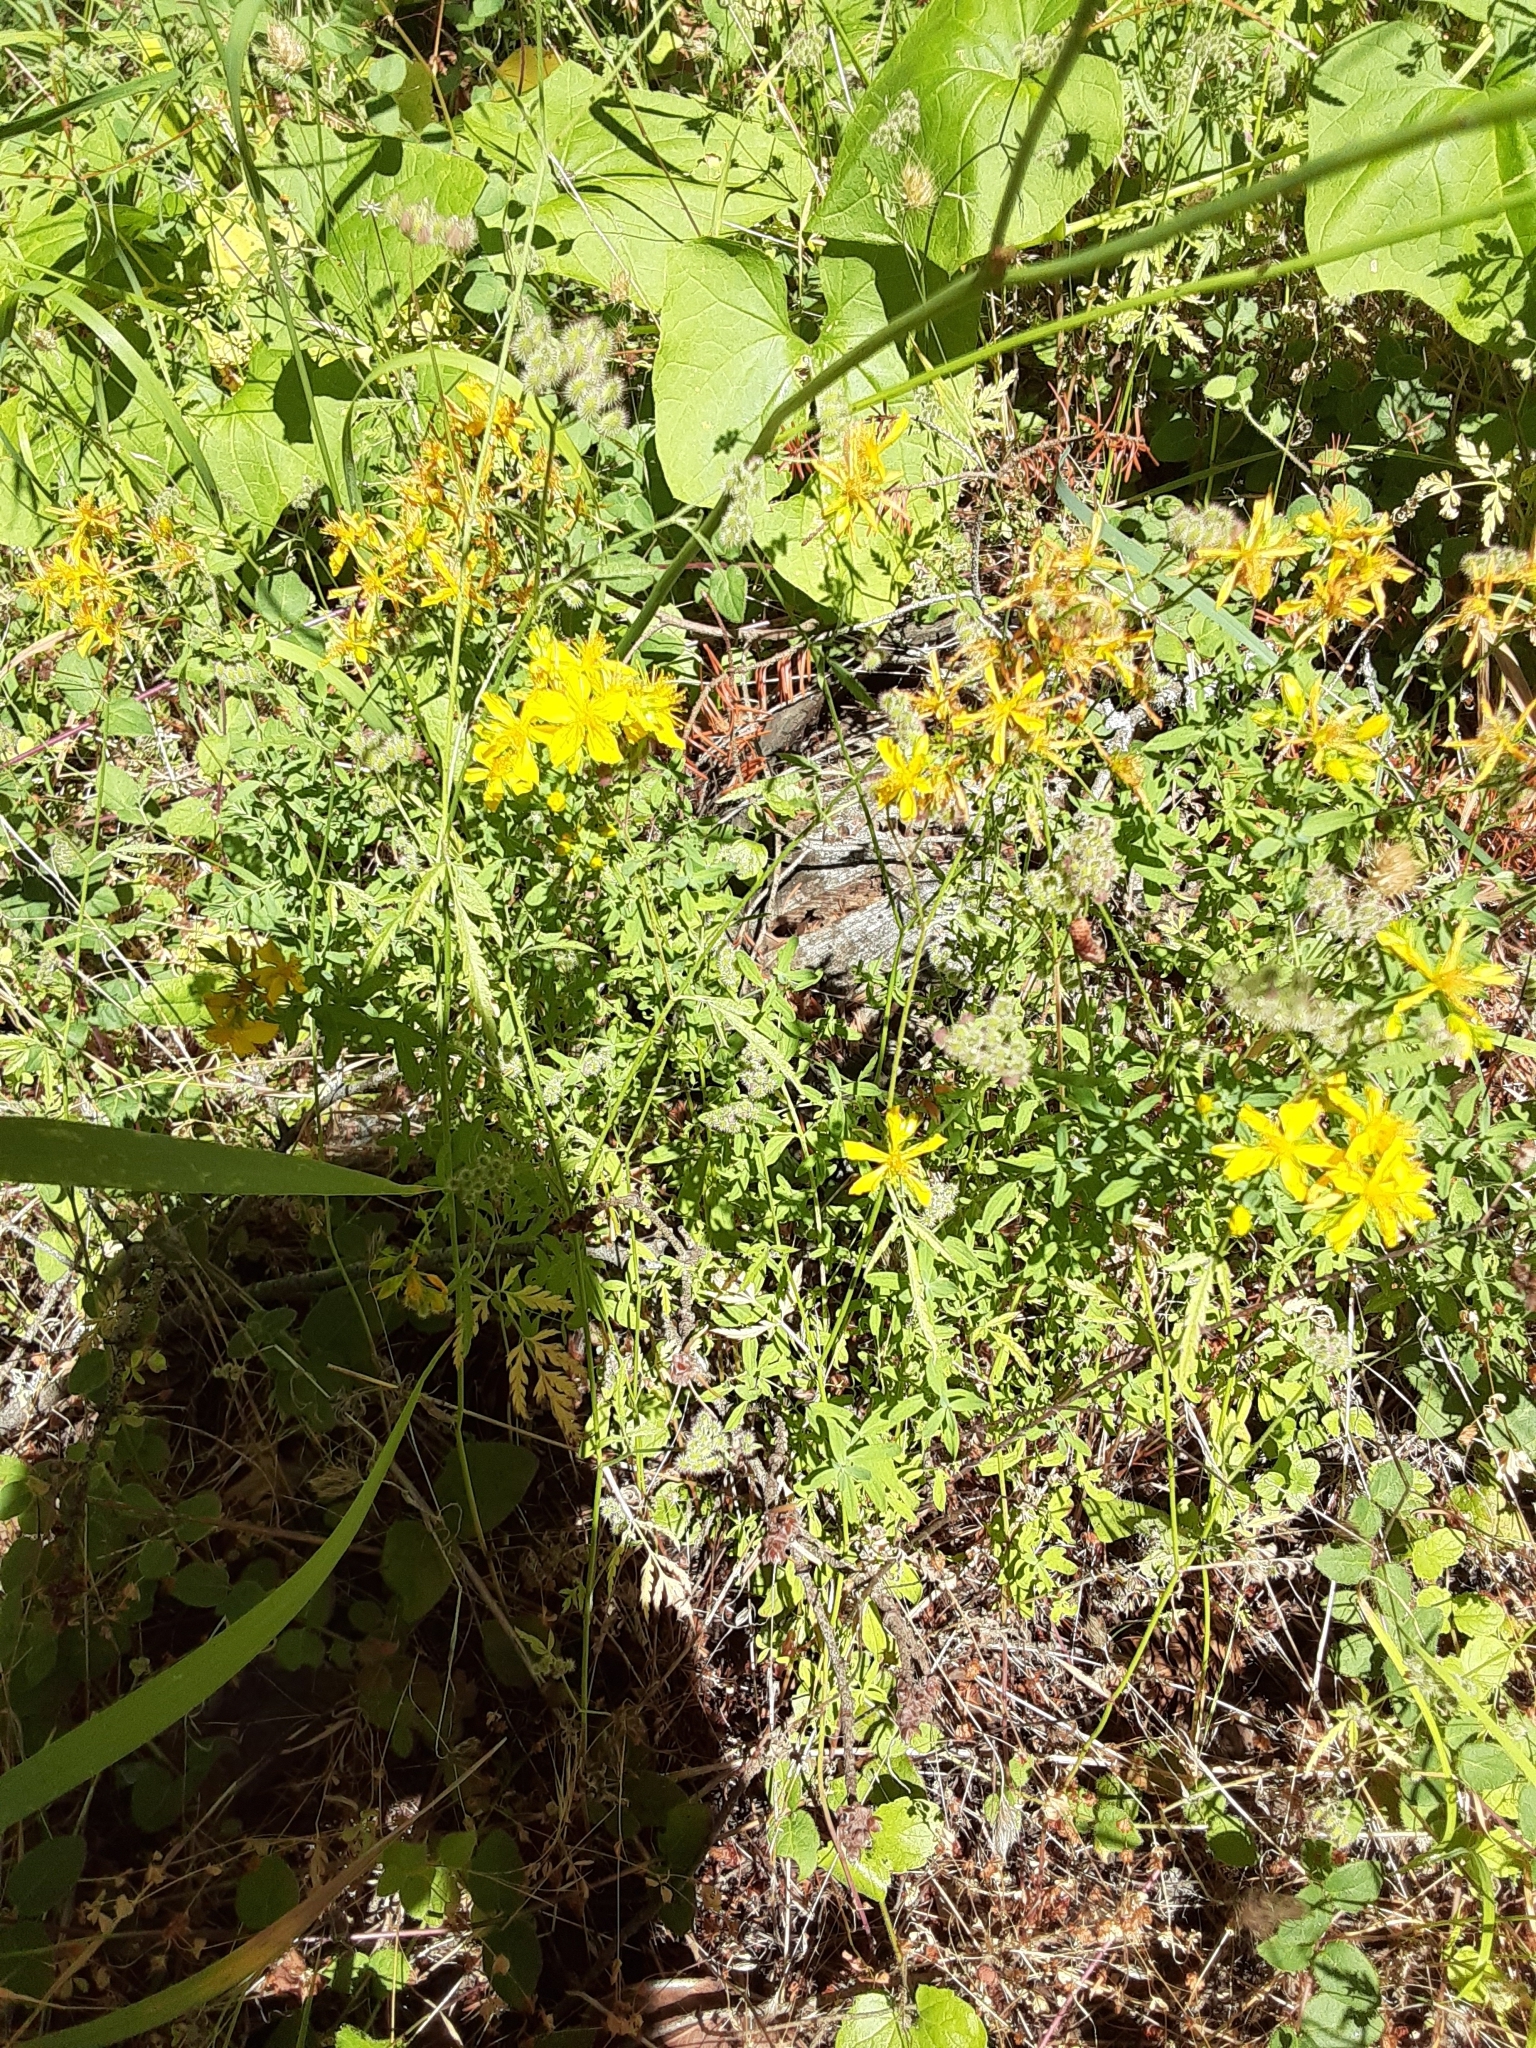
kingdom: Plantae
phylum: Tracheophyta
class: Magnoliopsida
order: Malpighiales
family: Hypericaceae
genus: Hypericum
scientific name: Hypericum perforatum
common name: Common st. johnswort
